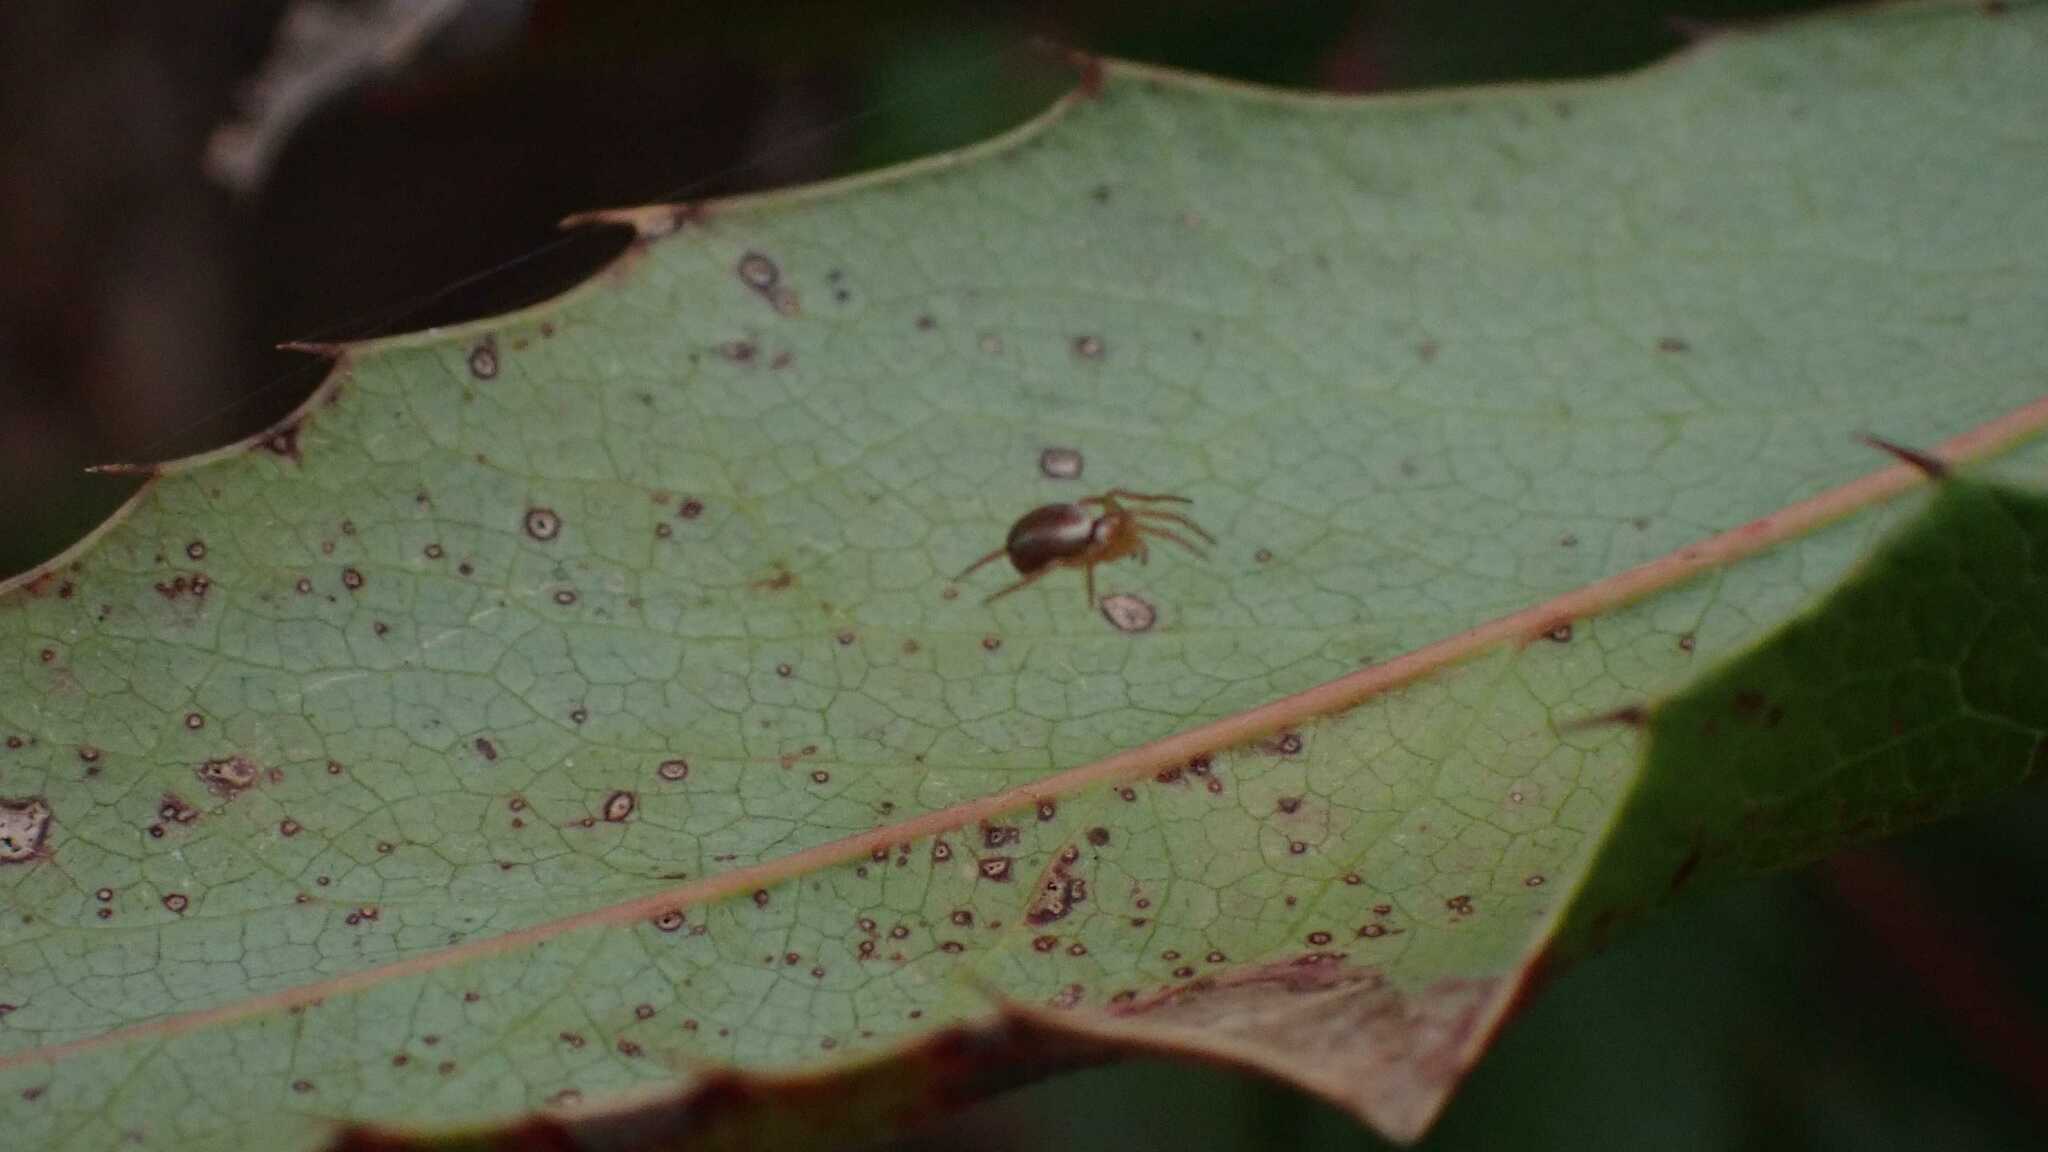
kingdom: Animalia
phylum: Arthropoda
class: Arachnida
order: Araneae
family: Araneidae
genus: Araniella
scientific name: Araniella
